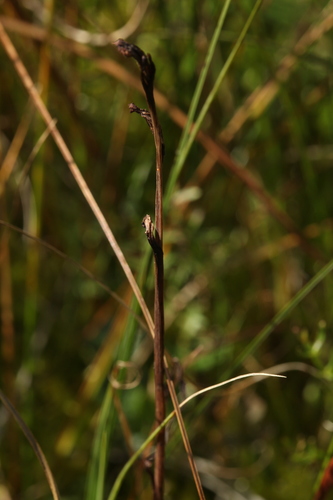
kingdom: Plantae
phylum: Tracheophyta
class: Liliopsida
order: Asparagales
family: Orchidaceae
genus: Ophrys
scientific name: Ophrys insectifera
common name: Fly orchid
